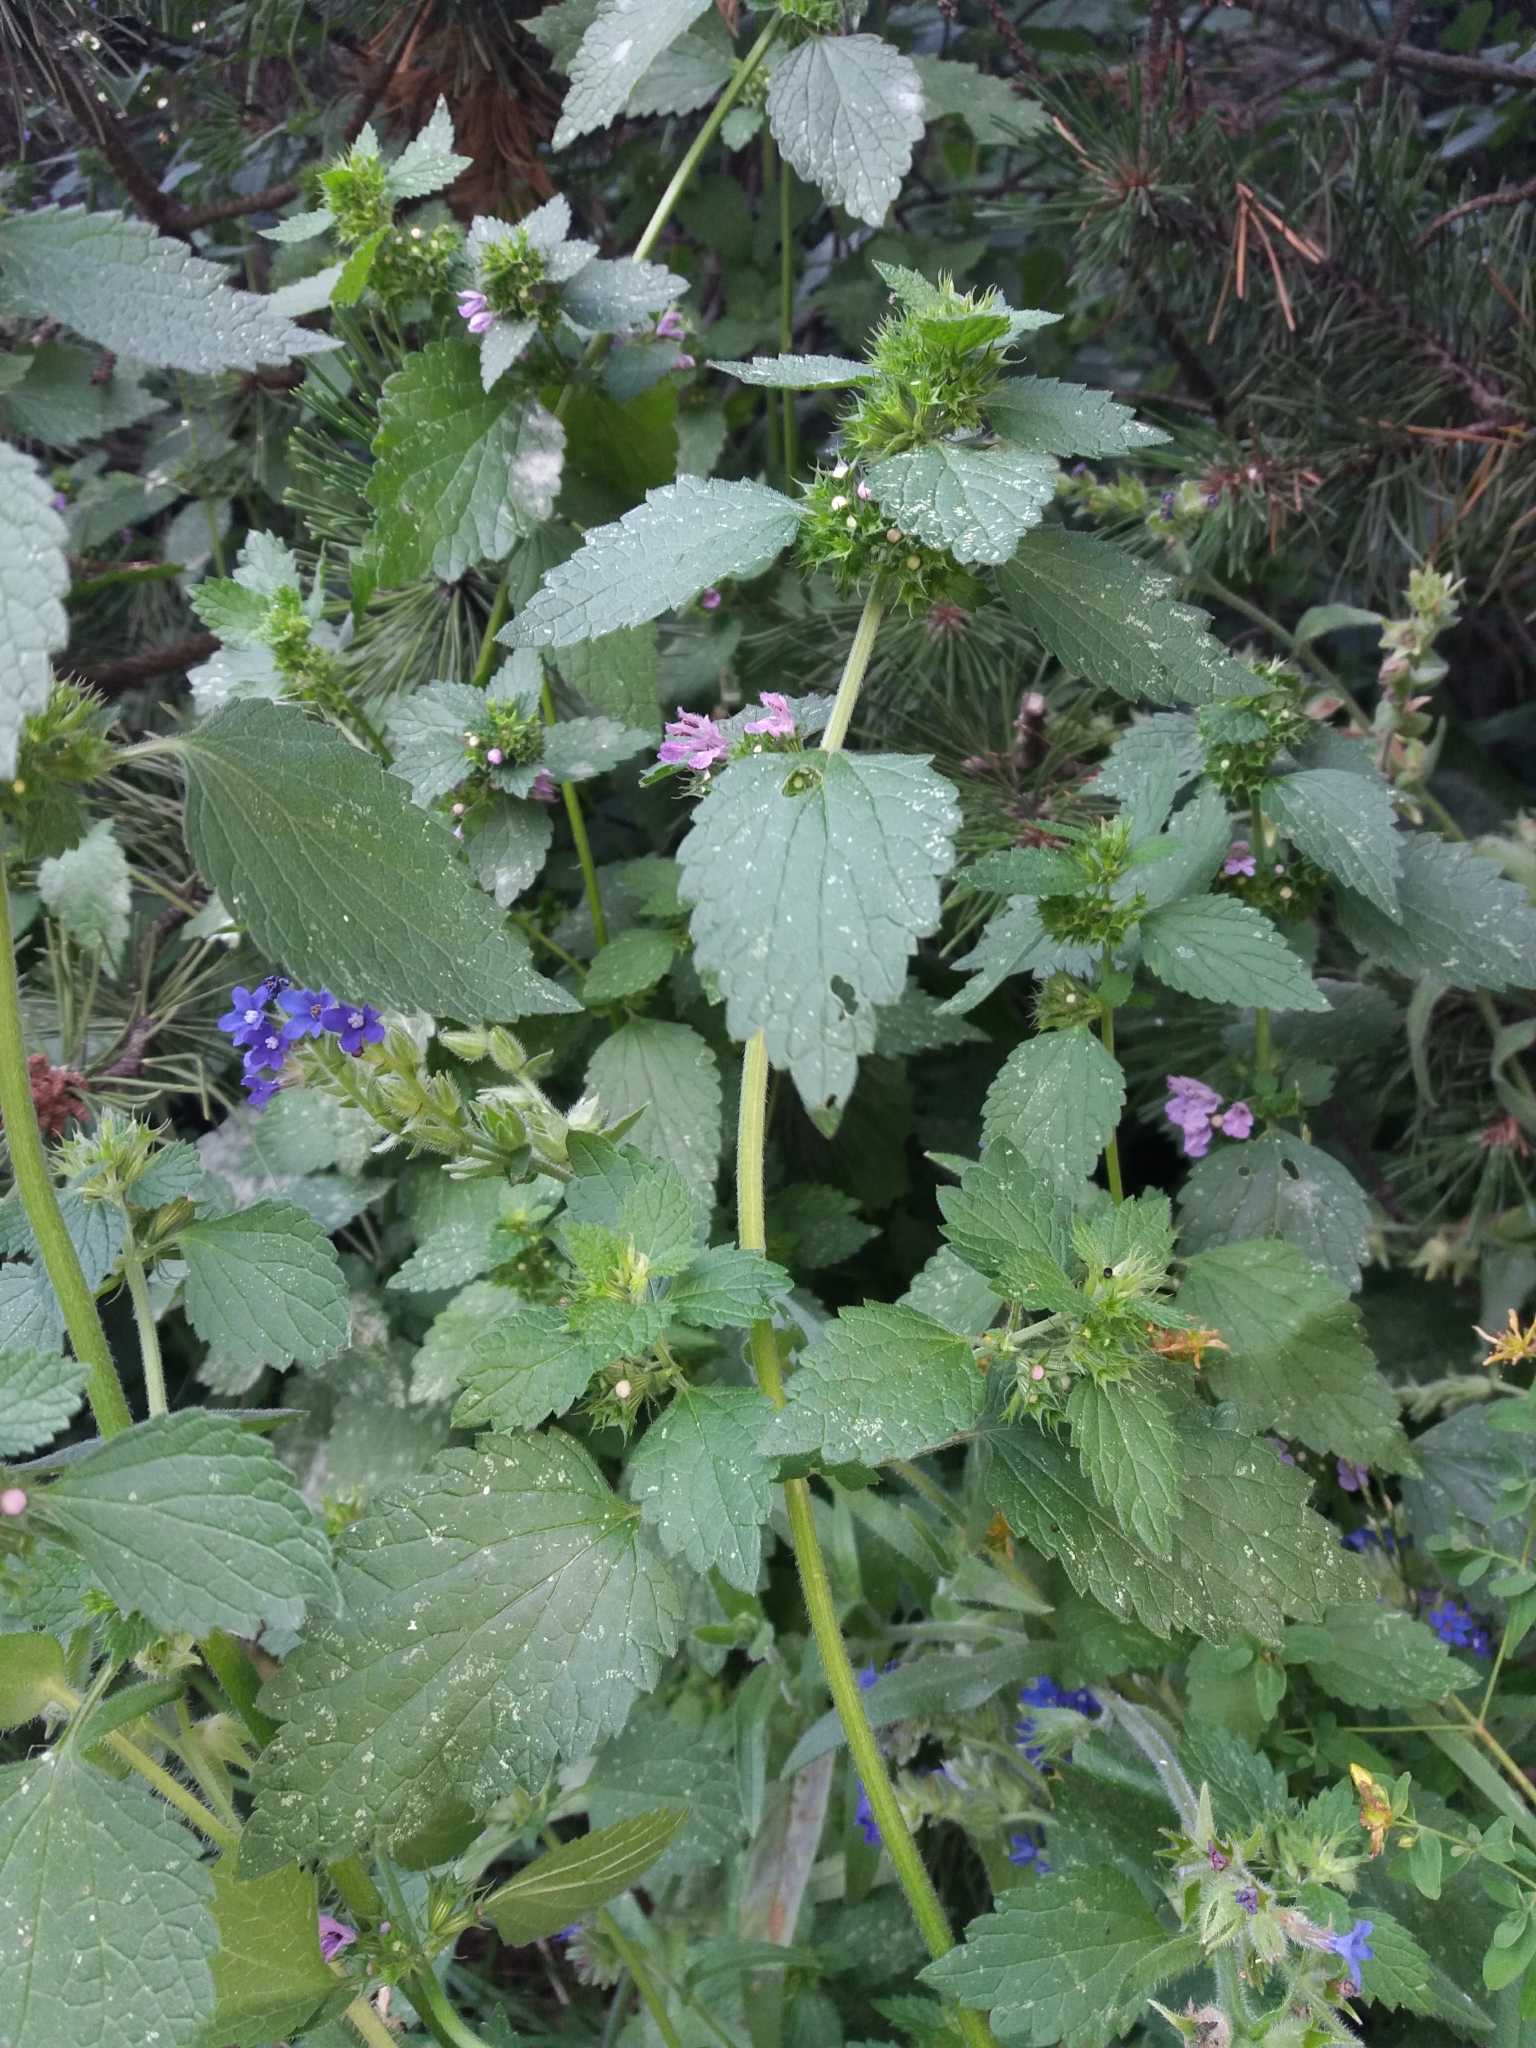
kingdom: Plantae
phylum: Tracheophyta
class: Magnoliopsida
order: Lamiales
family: Lamiaceae
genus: Ballota
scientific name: Ballota nigra
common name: Black horehound
